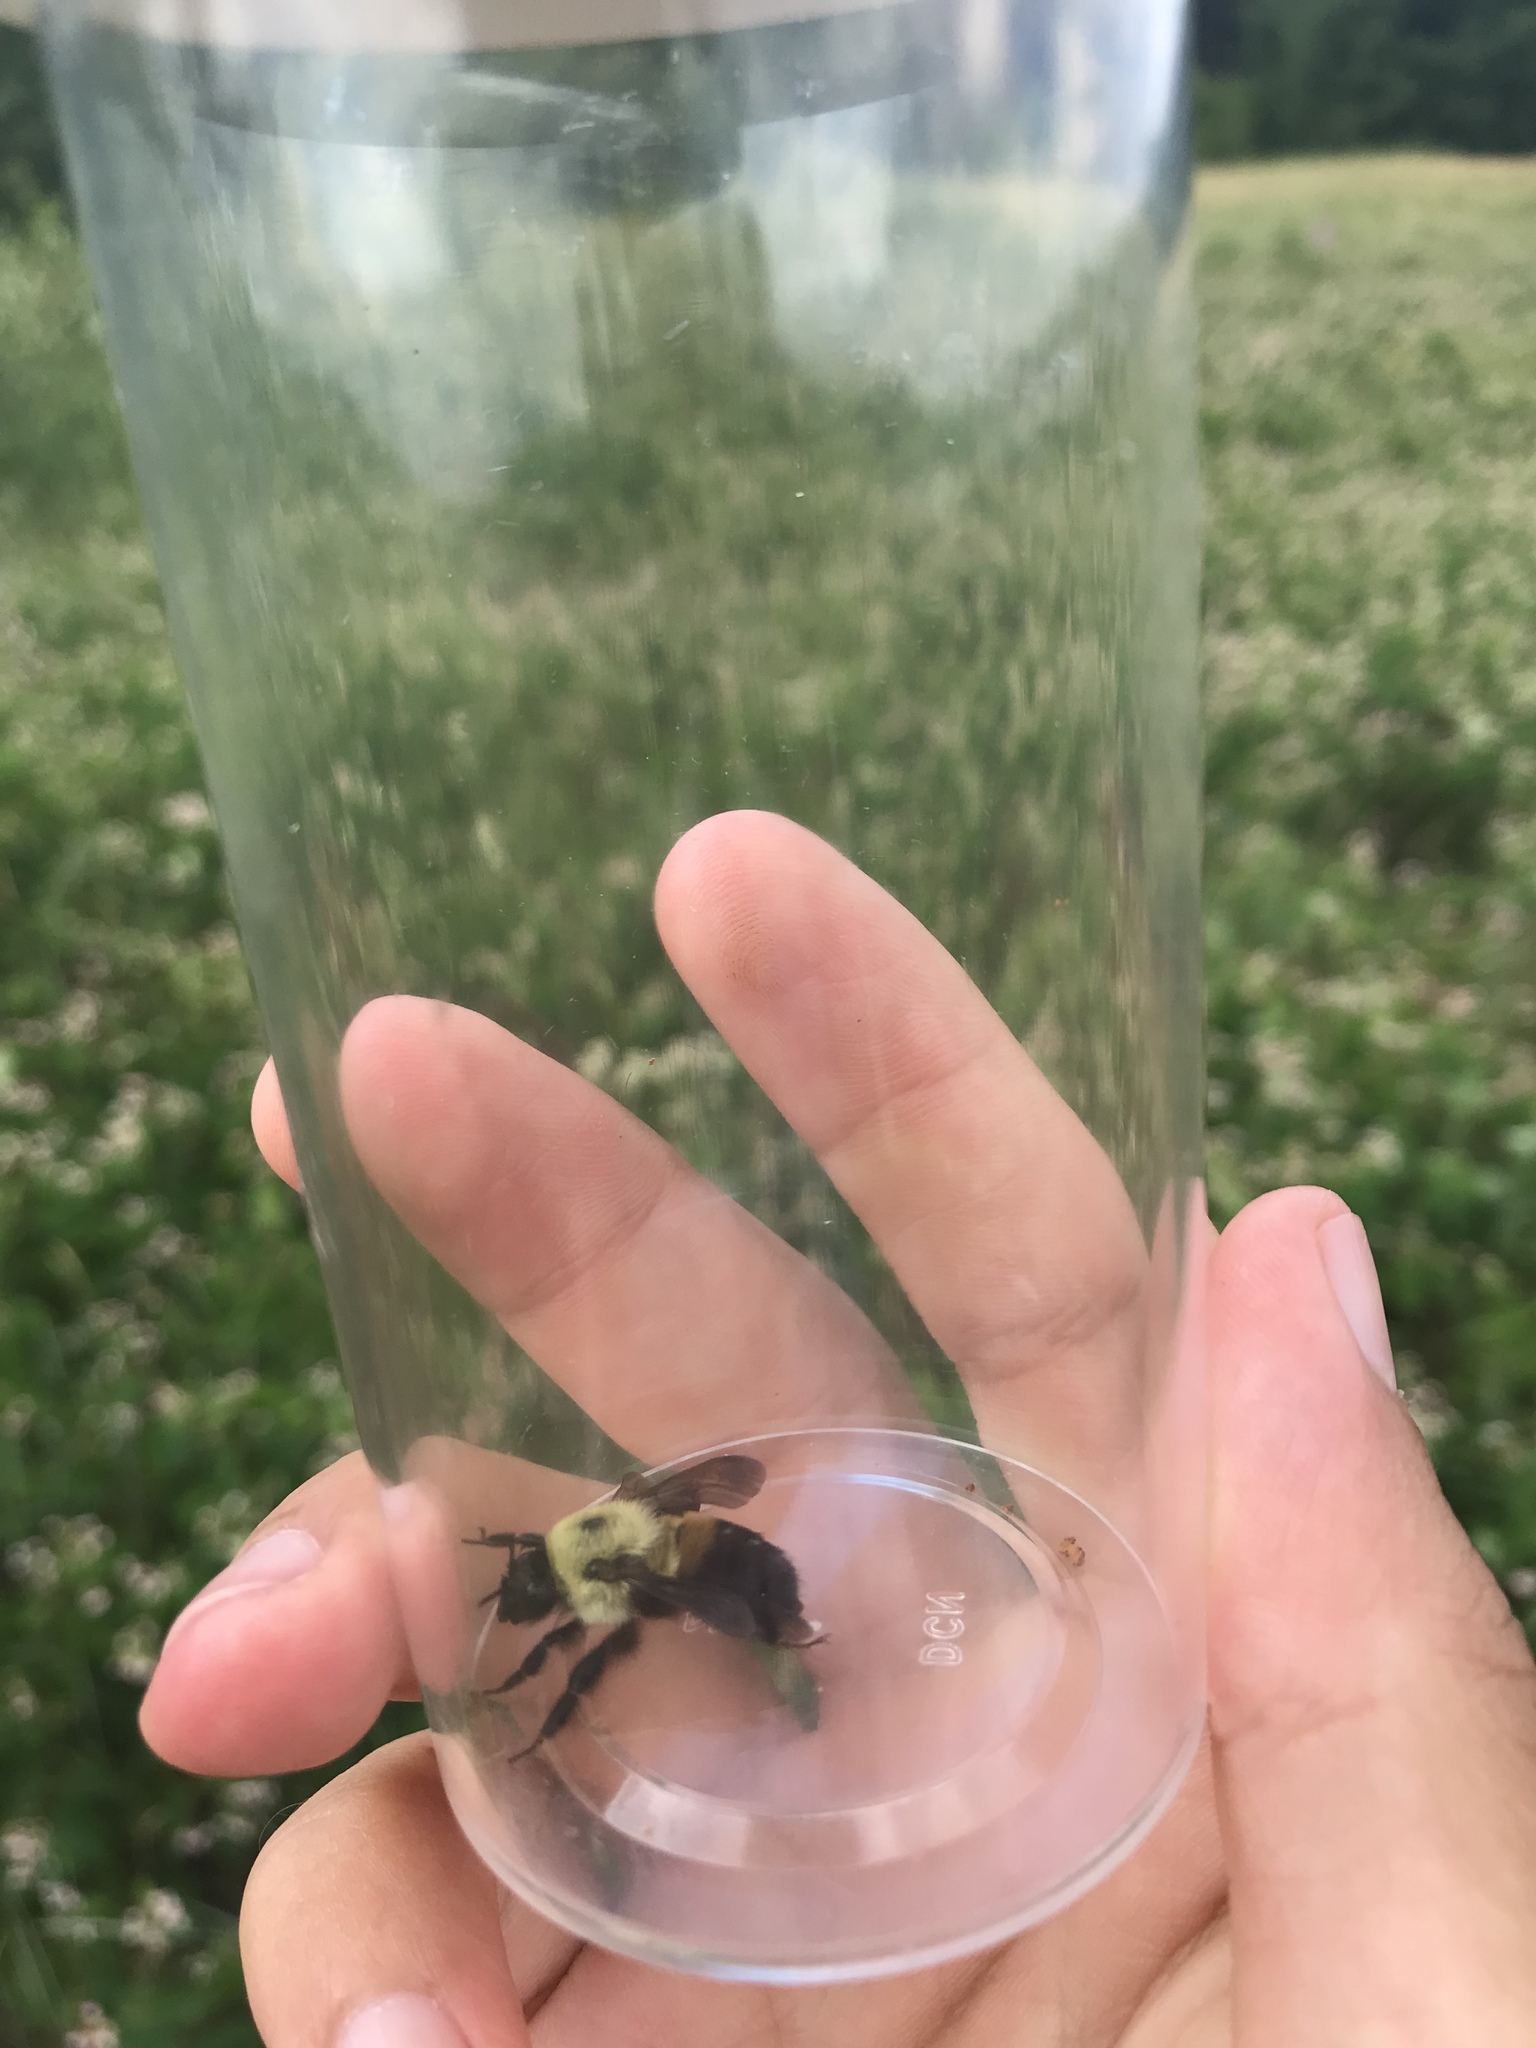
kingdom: Animalia
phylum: Arthropoda
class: Insecta
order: Hymenoptera
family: Apidae
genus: Bombus
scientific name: Bombus griseocollis
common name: Brown-belted bumble bee
